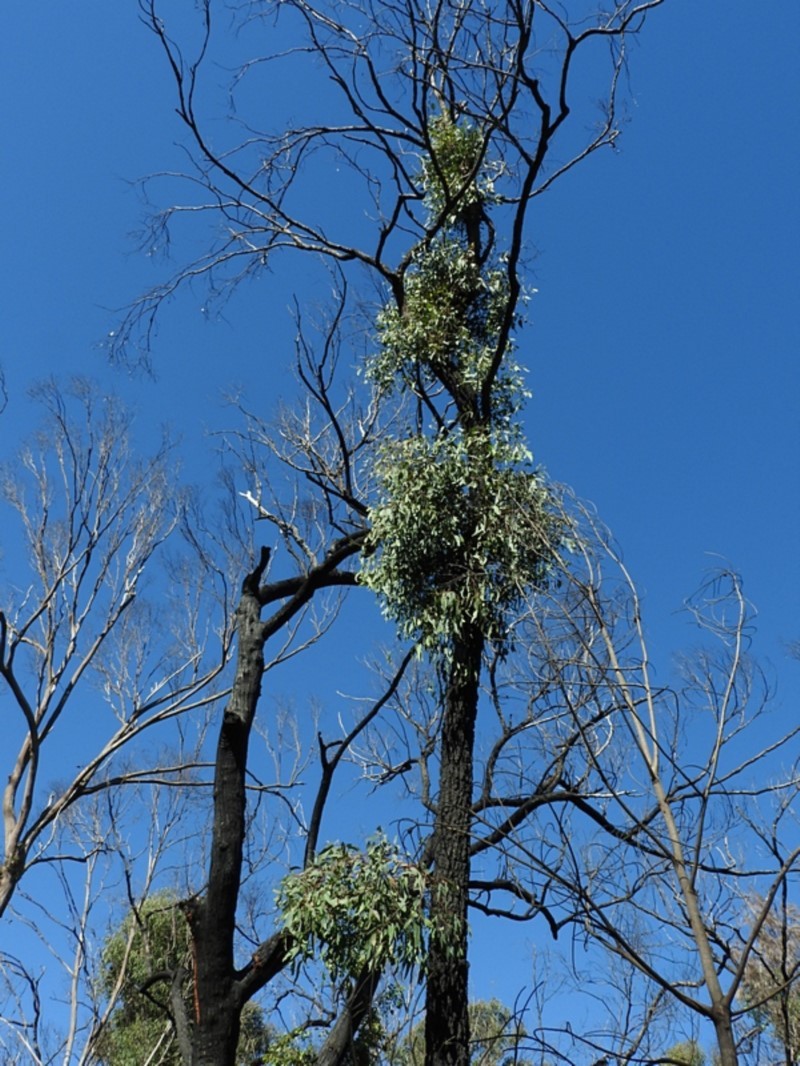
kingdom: Plantae
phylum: Tracheophyta
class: Magnoliopsida
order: Myrtales
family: Myrtaceae
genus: Eucalyptus
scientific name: Eucalyptus tricarpa
